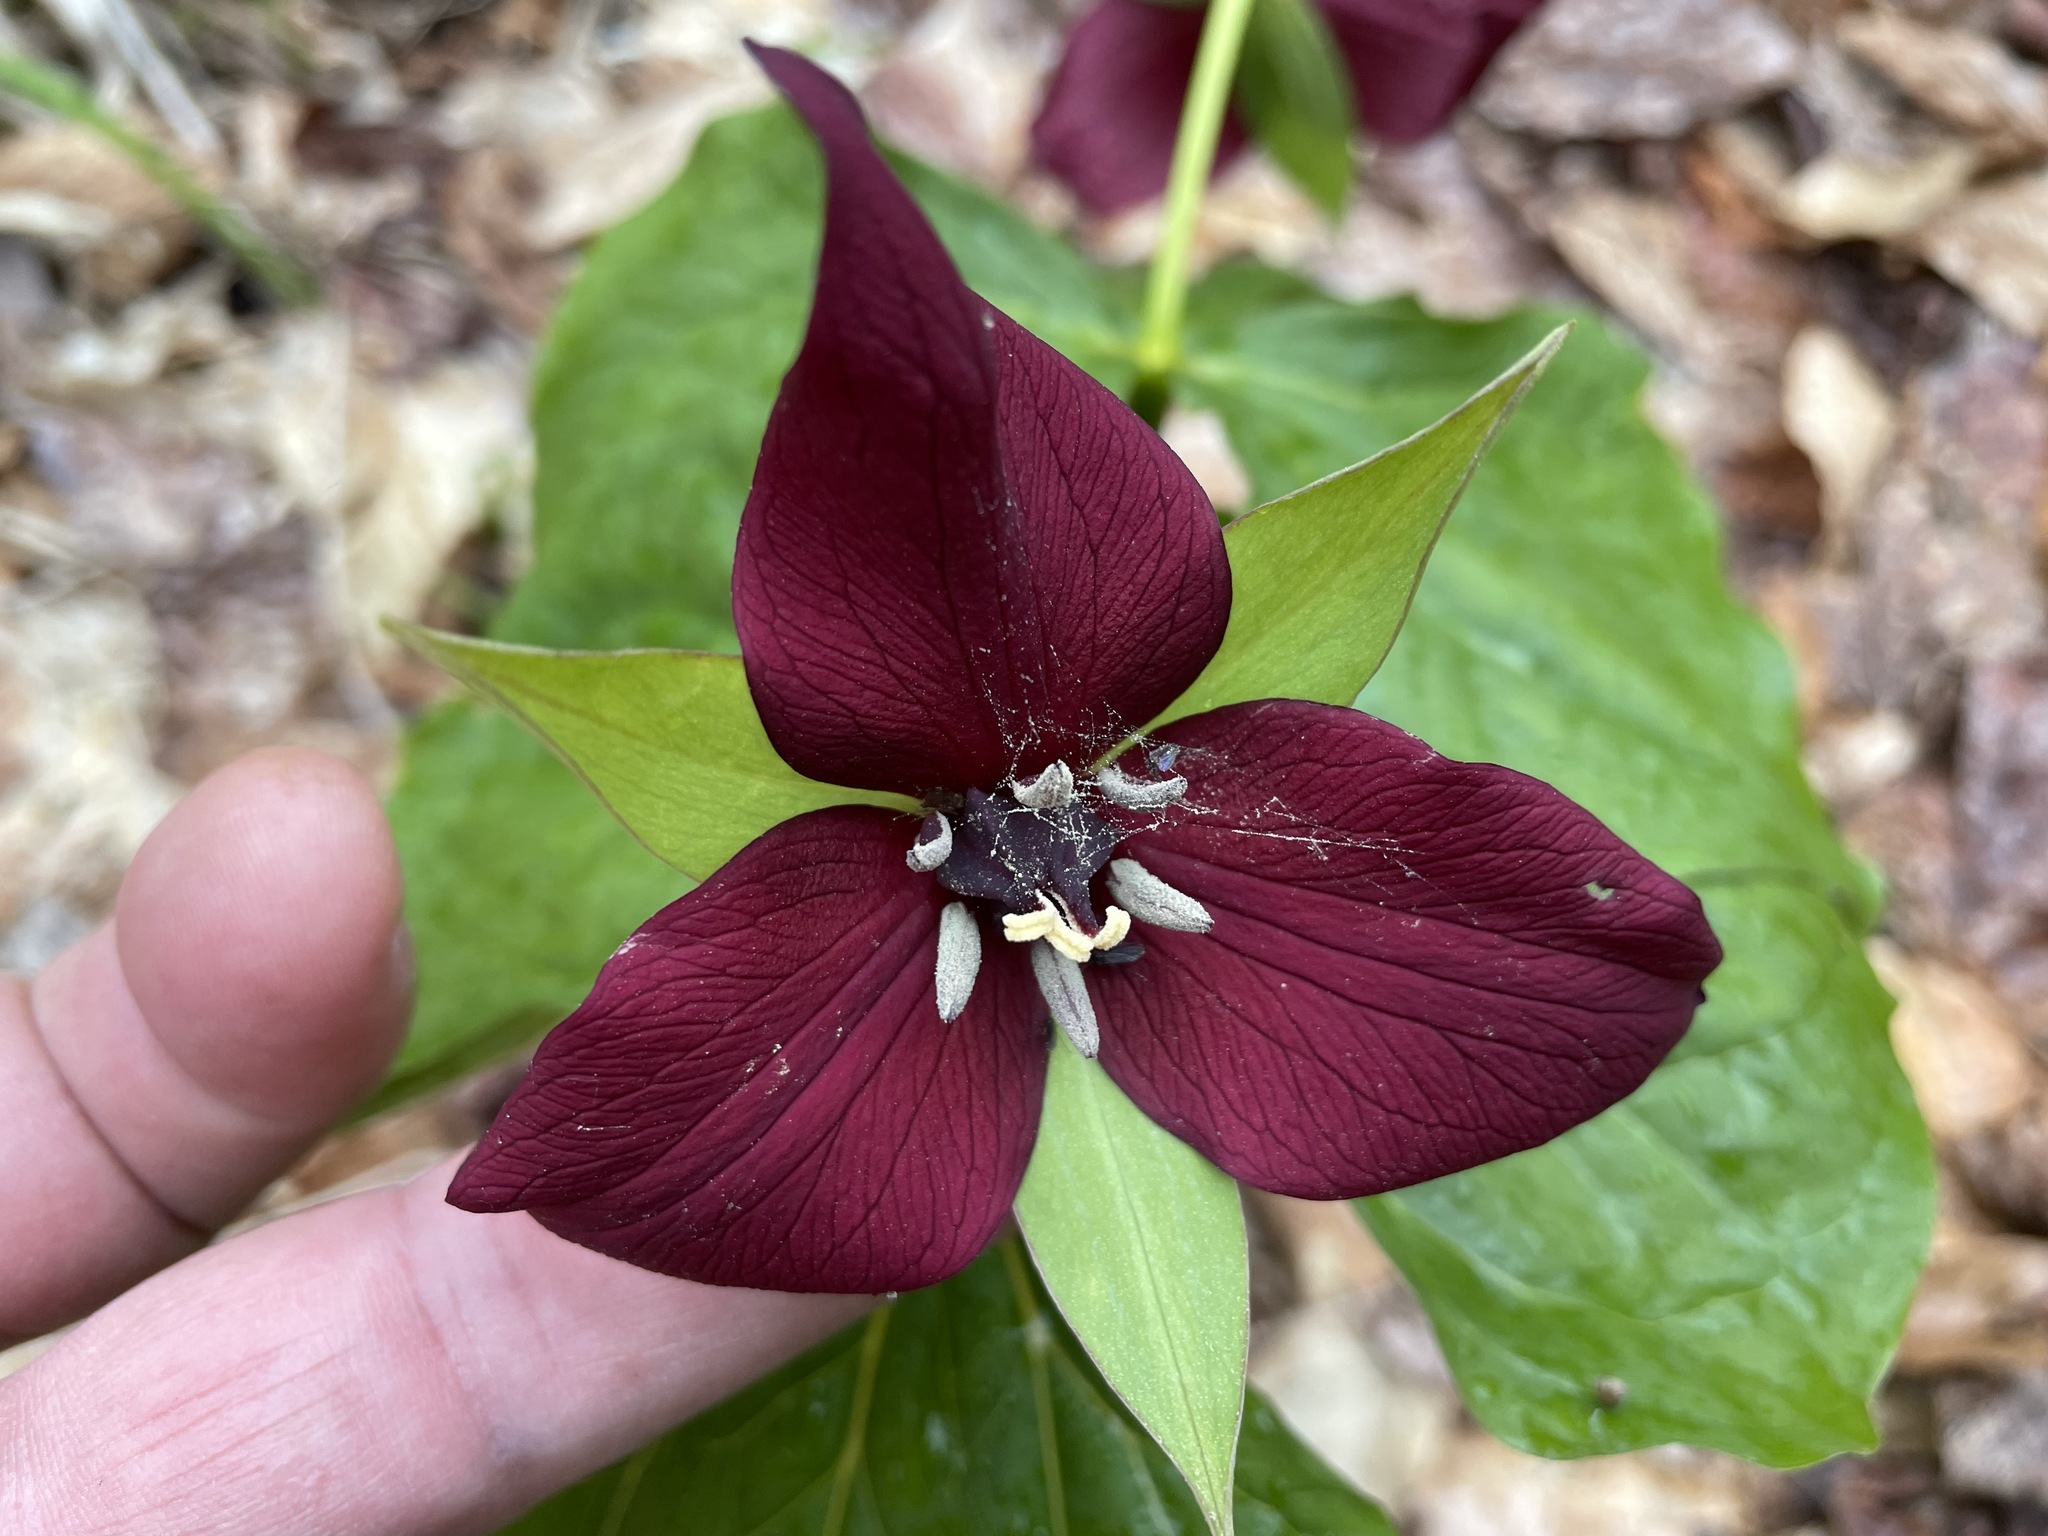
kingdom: Plantae
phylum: Tracheophyta
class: Liliopsida
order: Liliales
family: Melanthiaceae
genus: Trillium
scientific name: Trillium erectum
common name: Purple trillium
